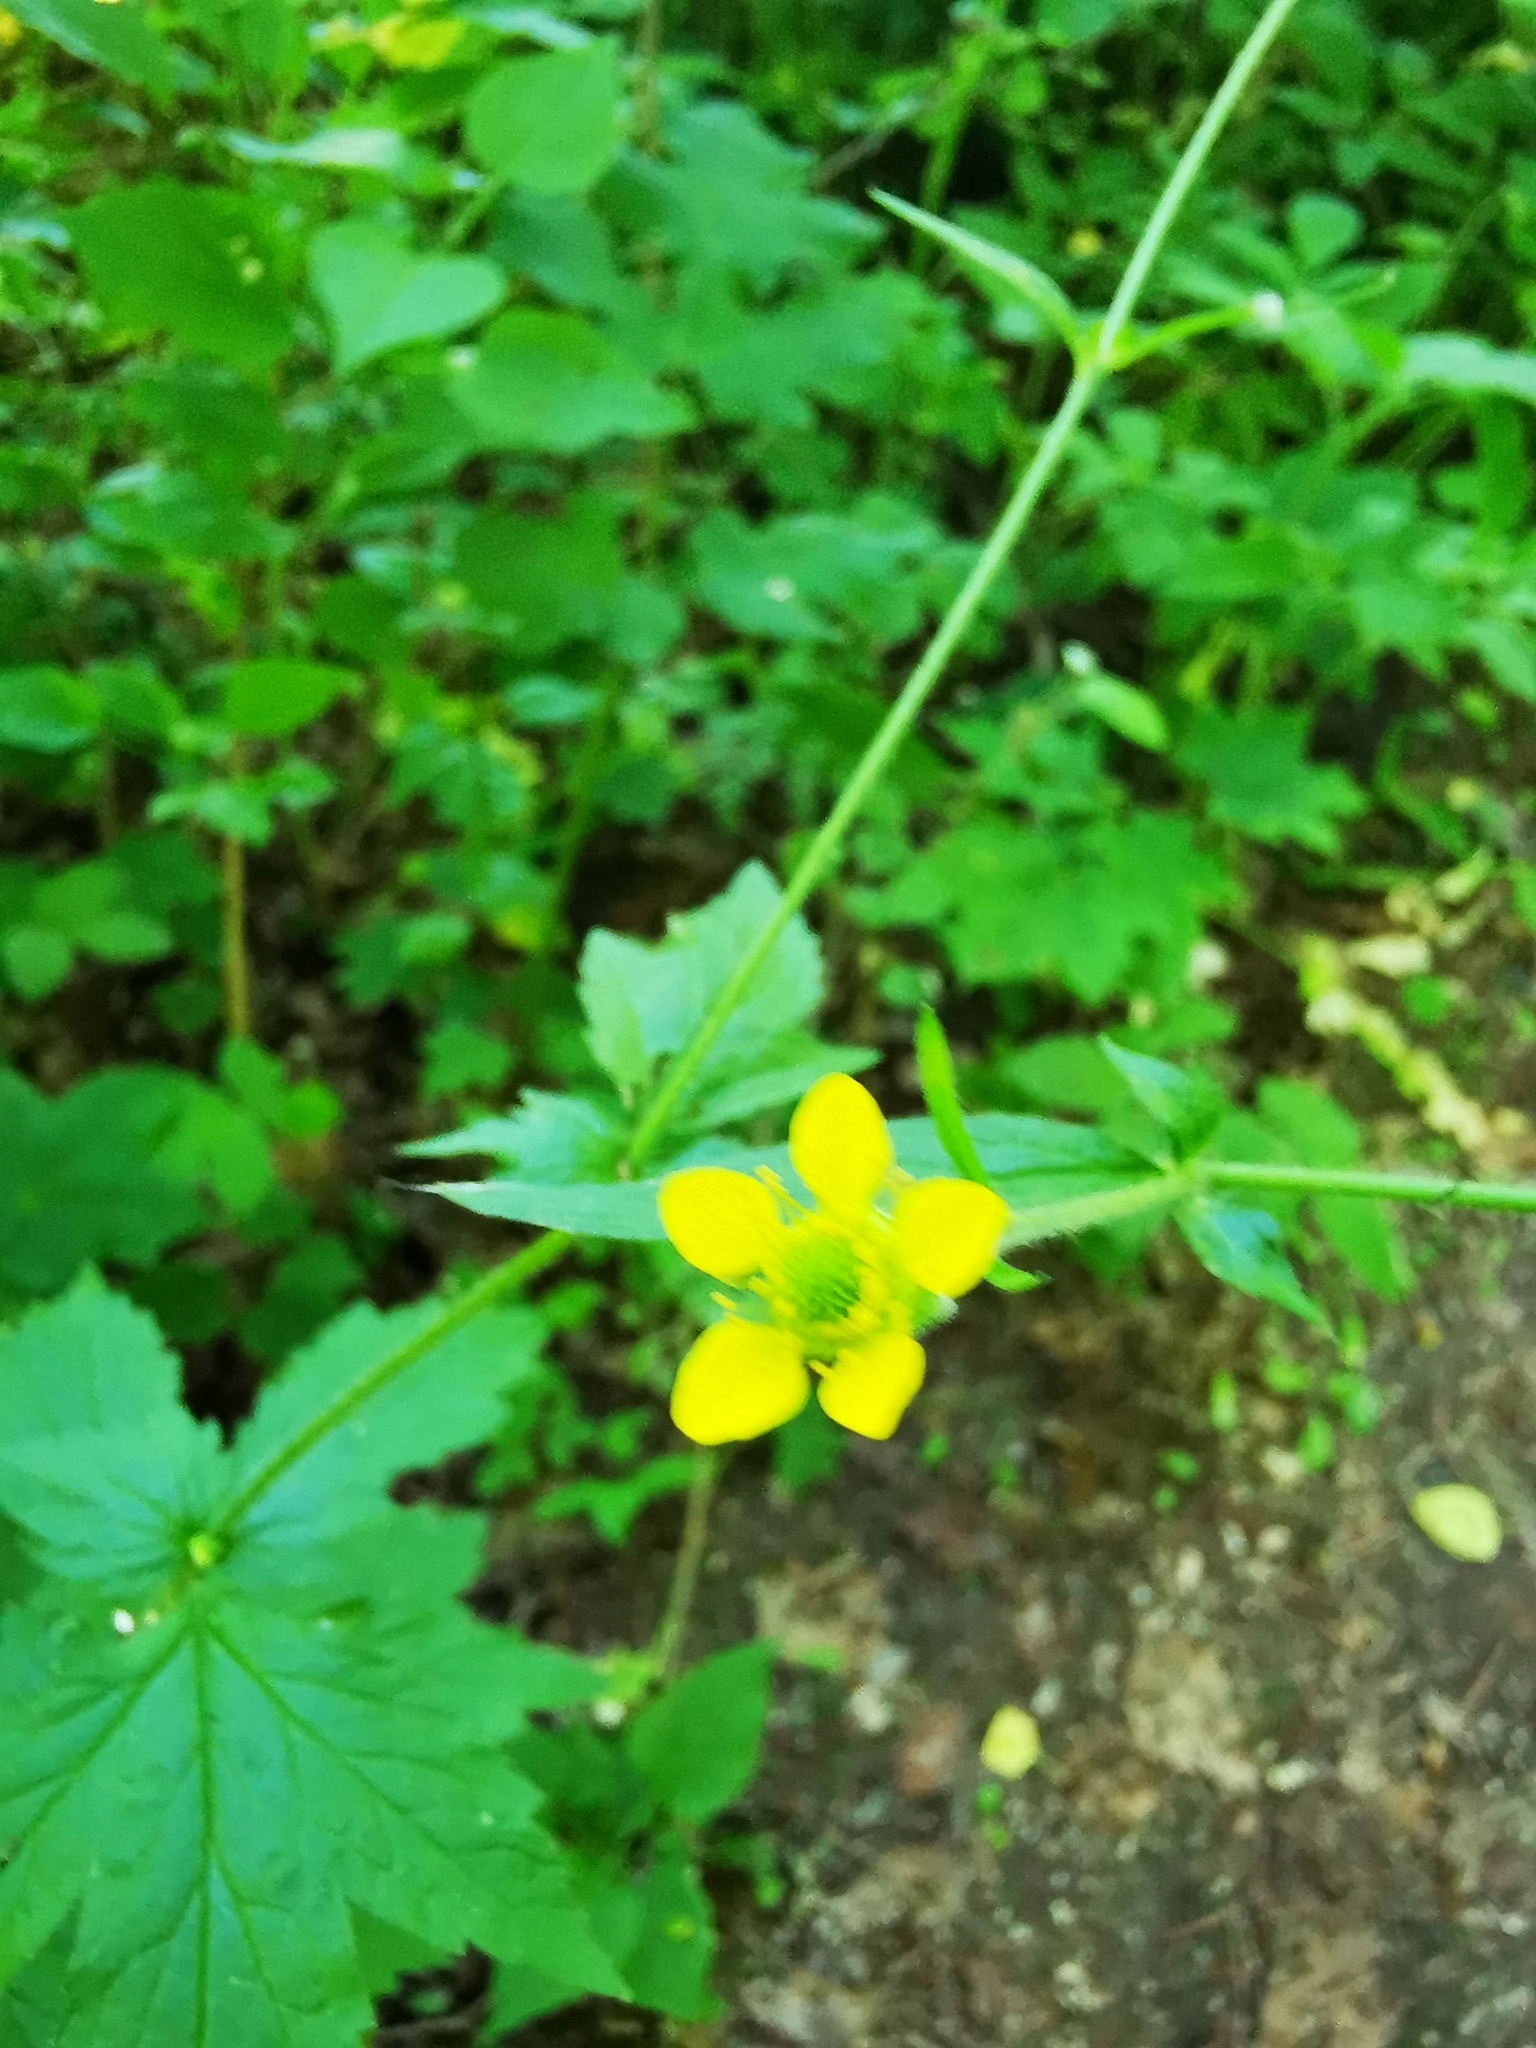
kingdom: Plantae
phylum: Tracheophyta
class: Magnoliopsida
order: Rosales
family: Rosaceae
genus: Geum
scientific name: Geum urbanum
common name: Wood avens
